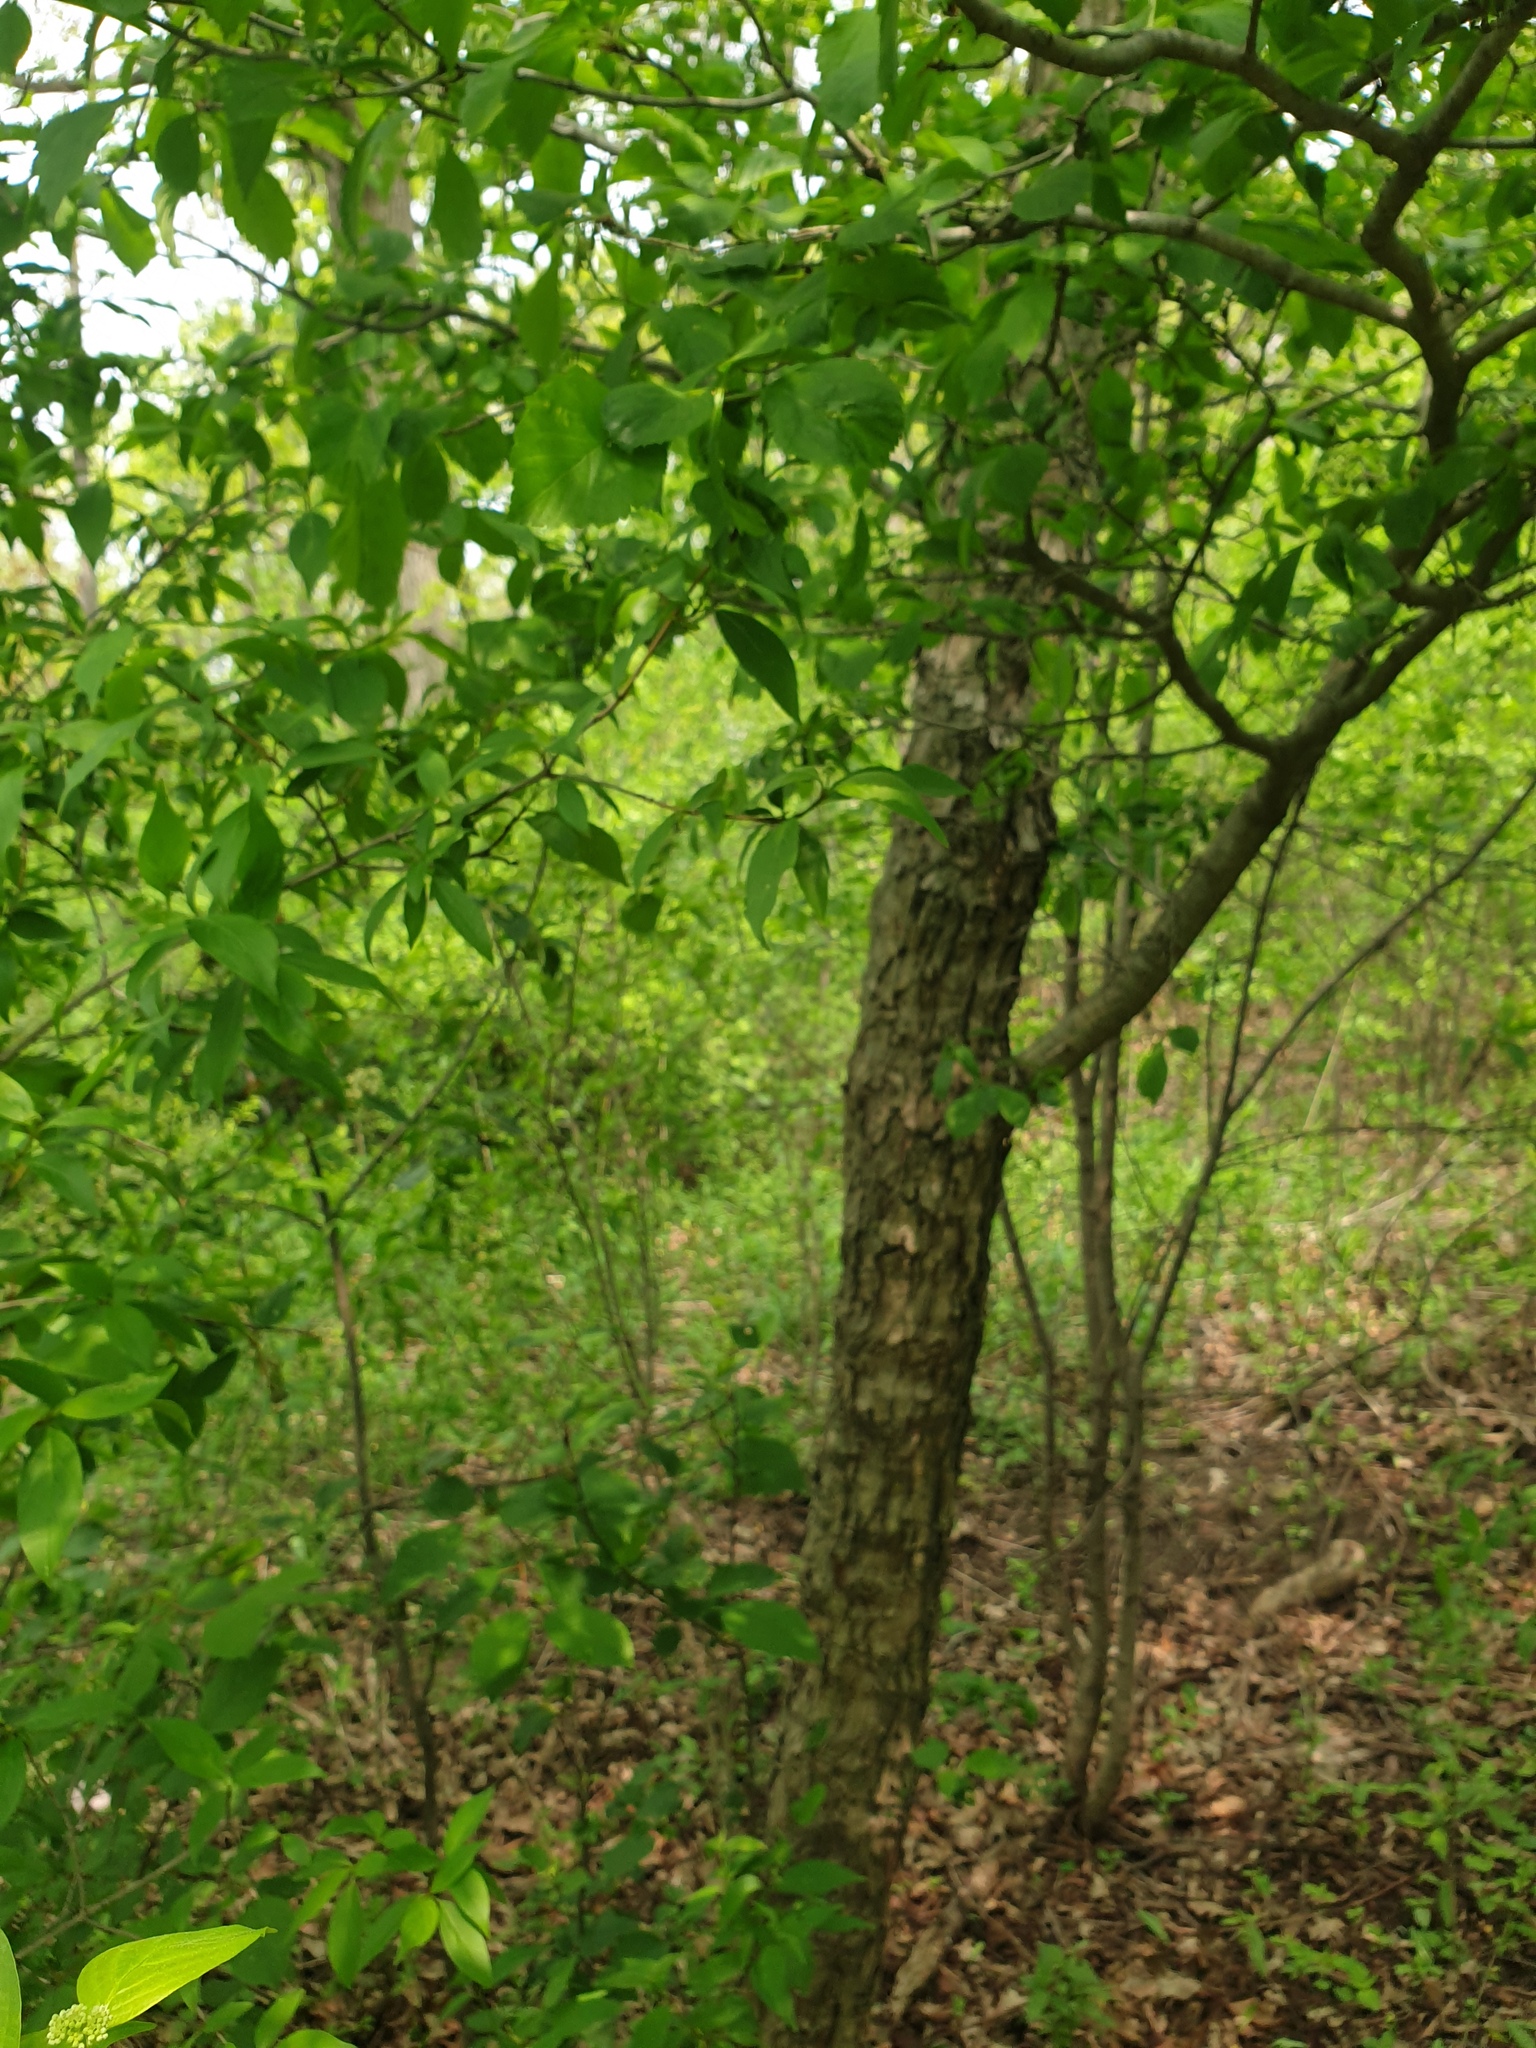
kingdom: Plantae
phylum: Tracheophyta
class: Magnoliopsida
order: Rosales
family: Rosaceae
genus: Crataegus
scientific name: Crataegus punctata
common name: Dotted hawthorn
